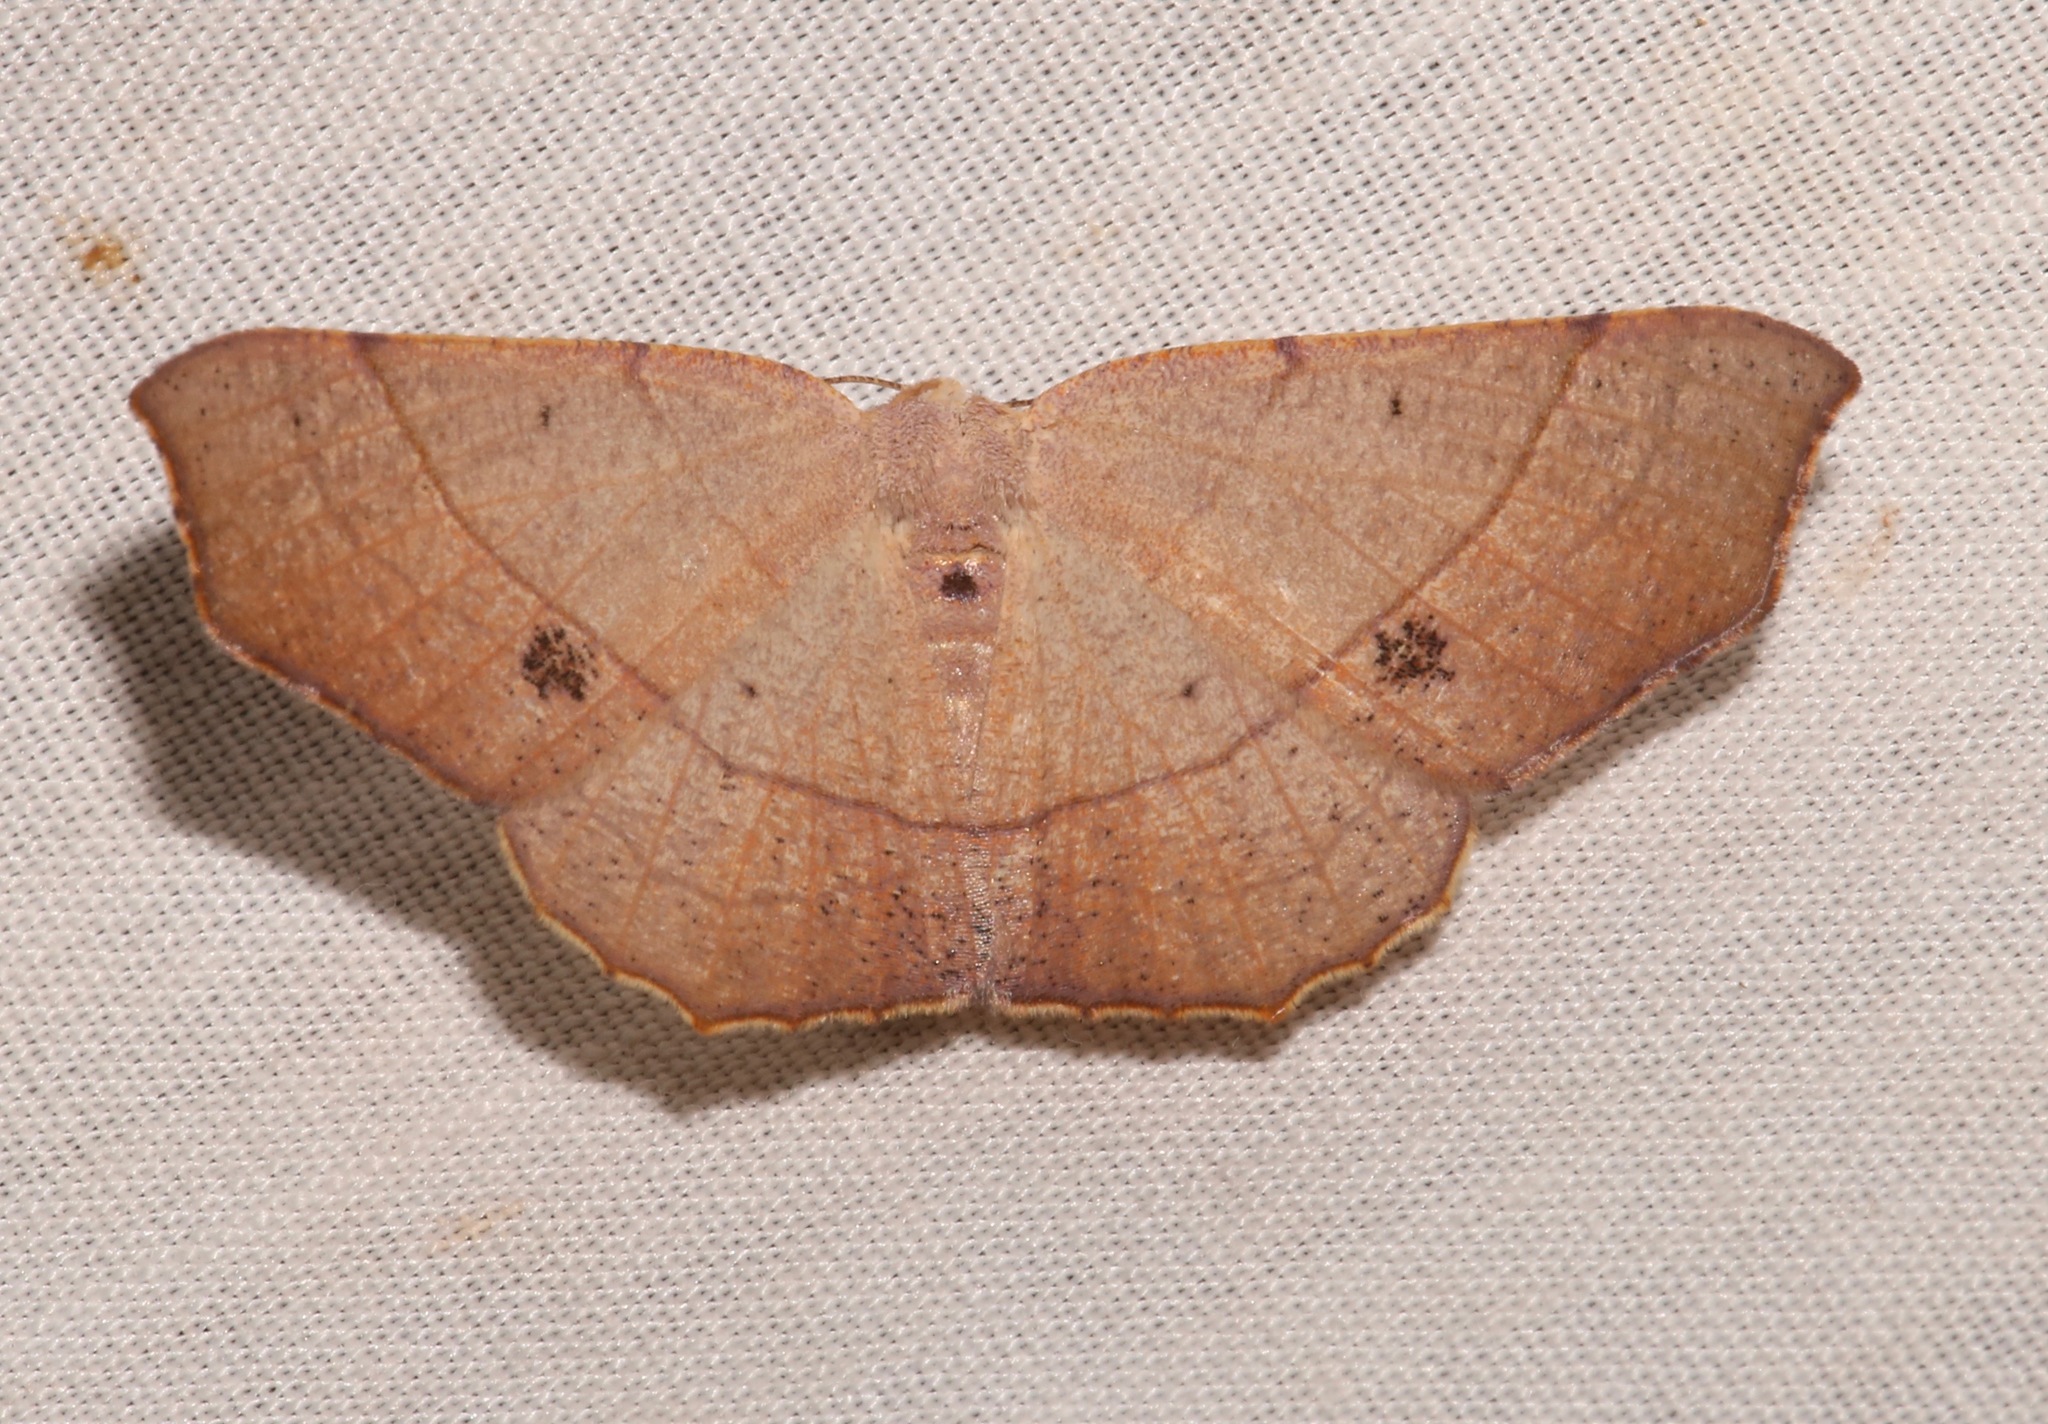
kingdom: Animalia
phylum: Arthropoda
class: Insecta
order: Lepidoptera
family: Geometridae
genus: Besma
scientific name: Besma rubritincta
